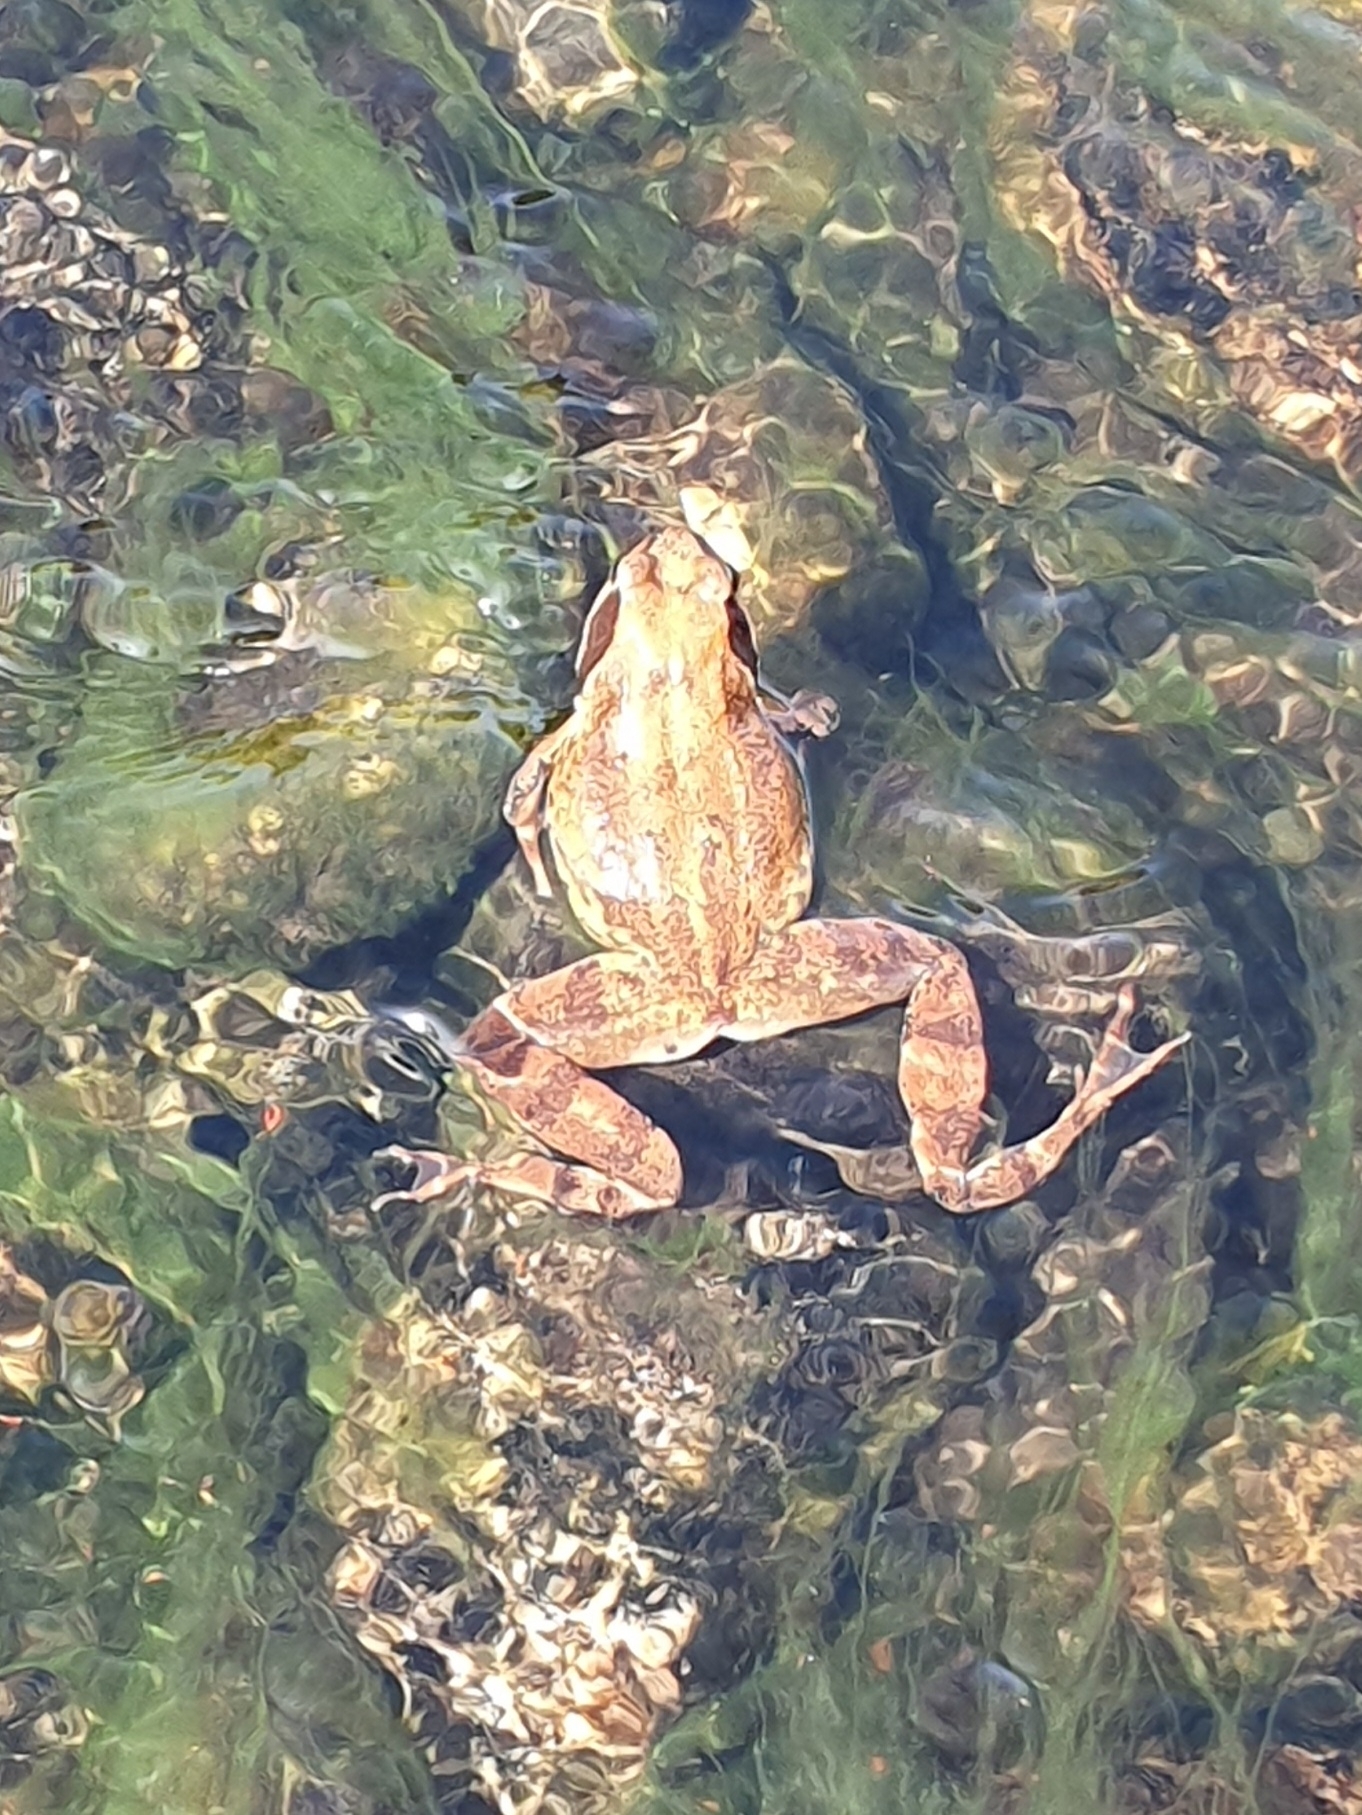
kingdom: Animalia
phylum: Chordata
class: Amphibia
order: Anura
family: Ranidae
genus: Rana
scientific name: Rana temporaria
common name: Common frog
